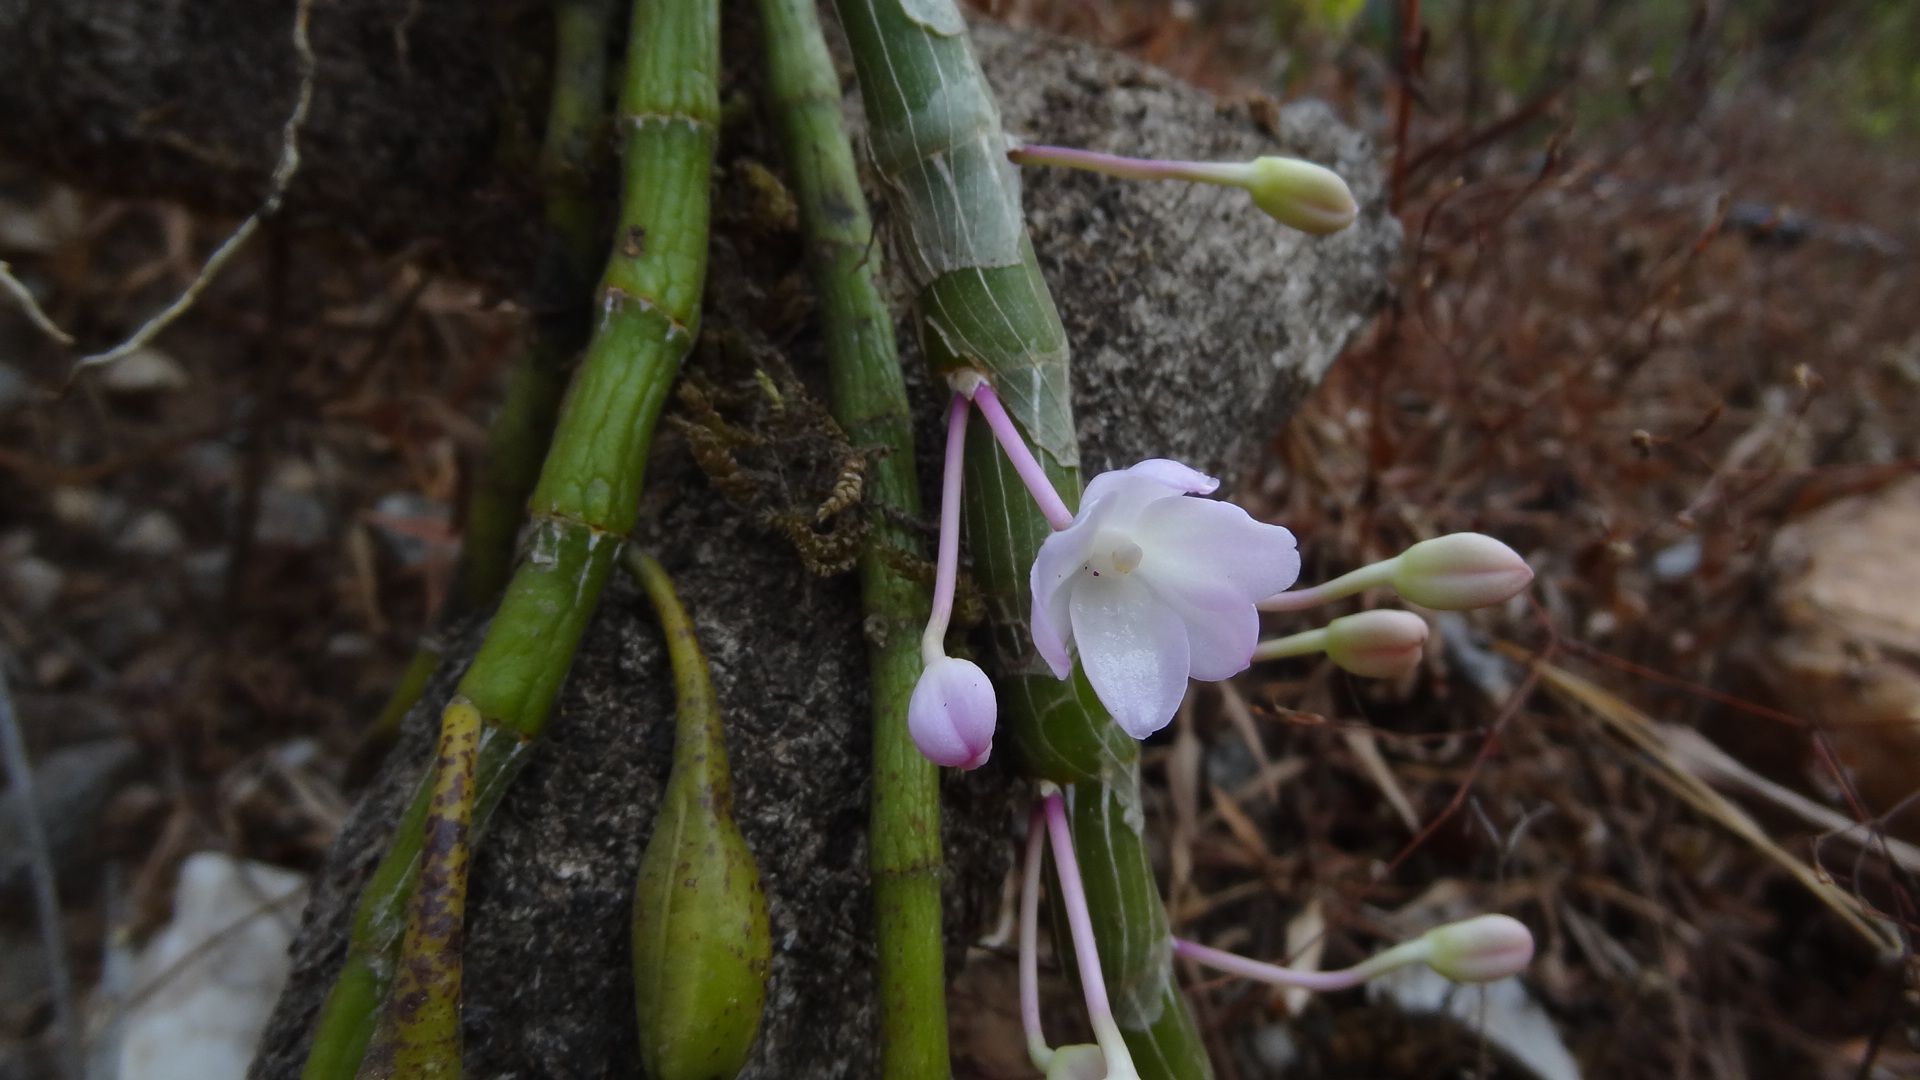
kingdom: Plantae
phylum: Tracheophyta
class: Liliopsida
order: Asparagales
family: Orchidaceae
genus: Dendrobium
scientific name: Dendrobium crepidatum
